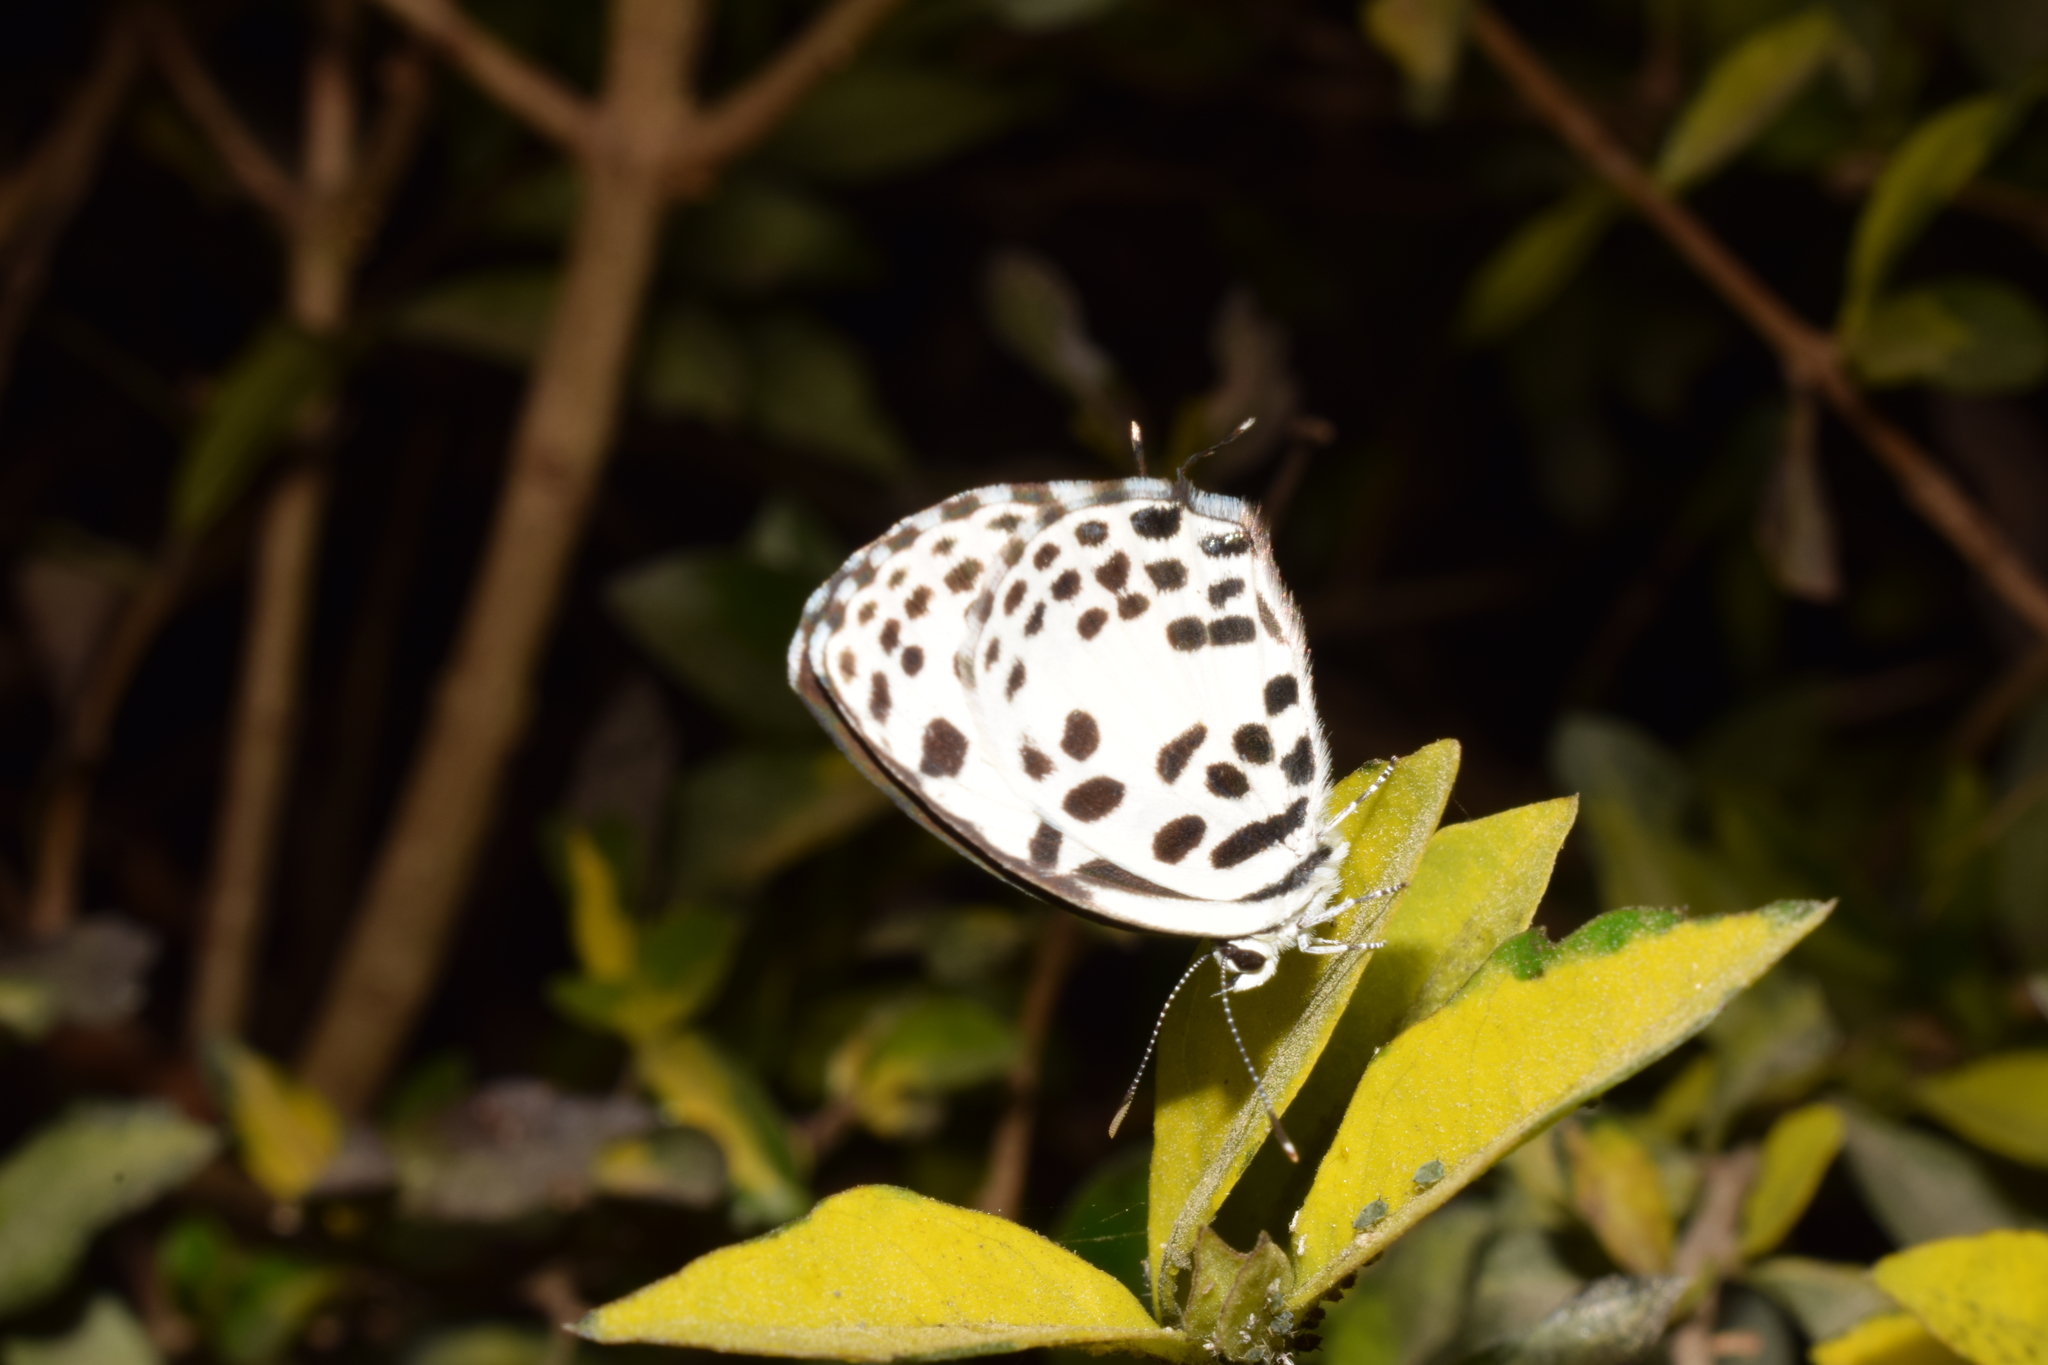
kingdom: Animalia
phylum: Arthropoda
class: Insecta
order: Lepidoptera
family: Lycaenidae
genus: Castalius
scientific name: Castalius rosimon
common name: Common pierrot
